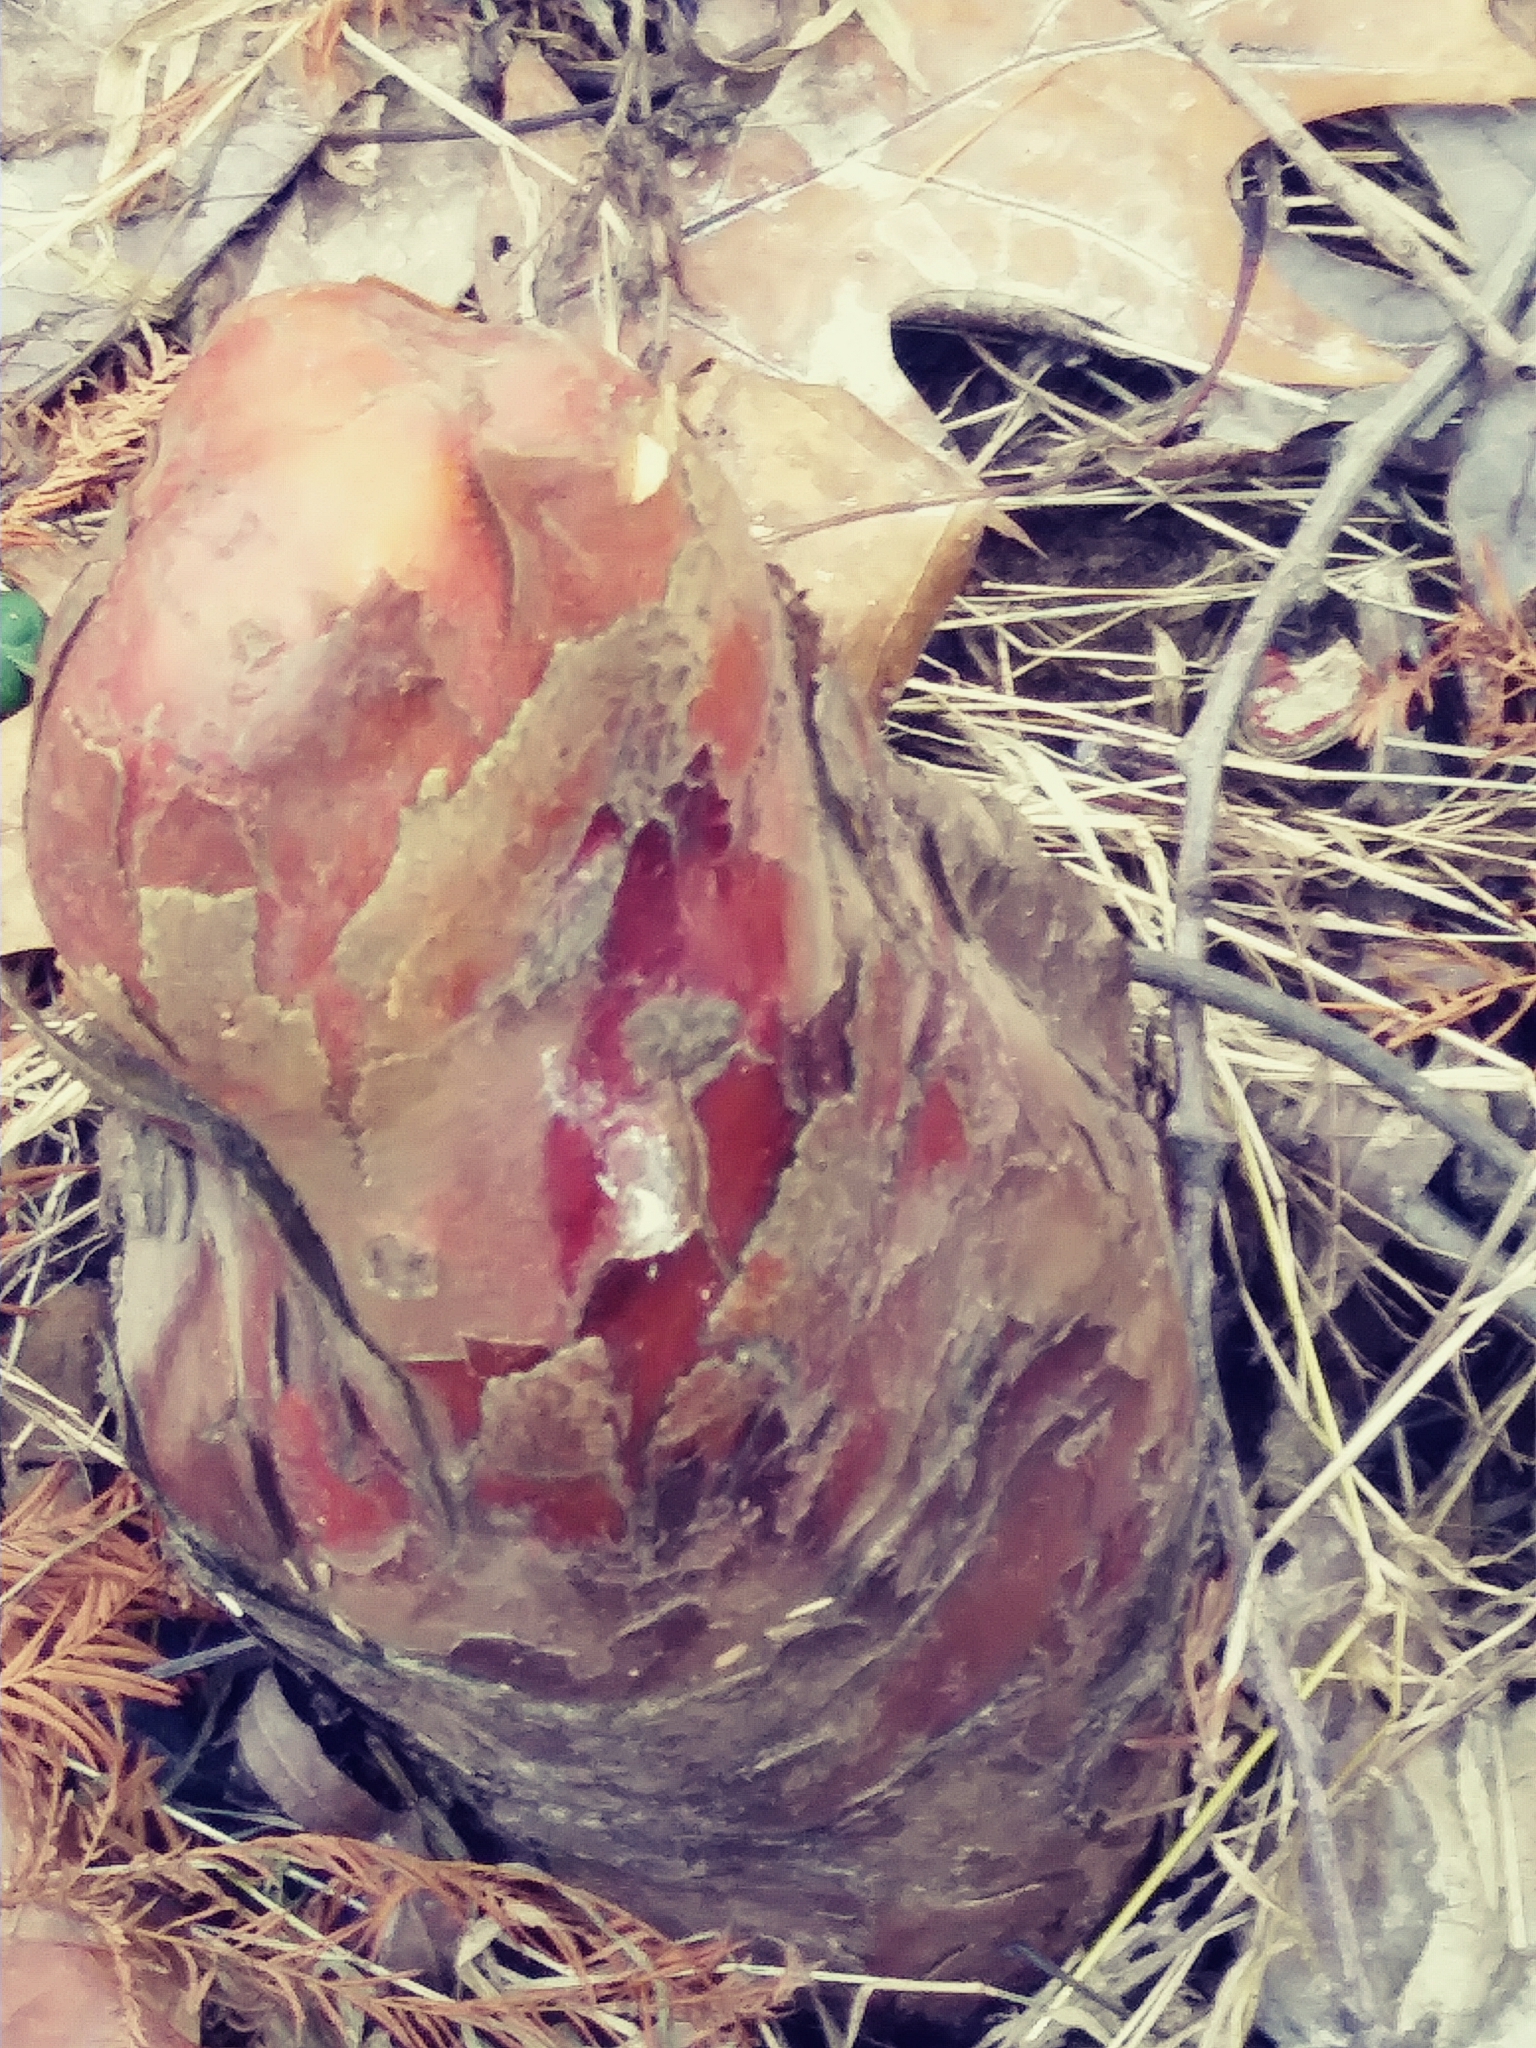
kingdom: Plantae
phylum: Tracheophyta
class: Pinopsida
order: Pinales
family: Cupressaceae
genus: Taxodium
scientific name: Taxodium distichum
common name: Bald cypress
